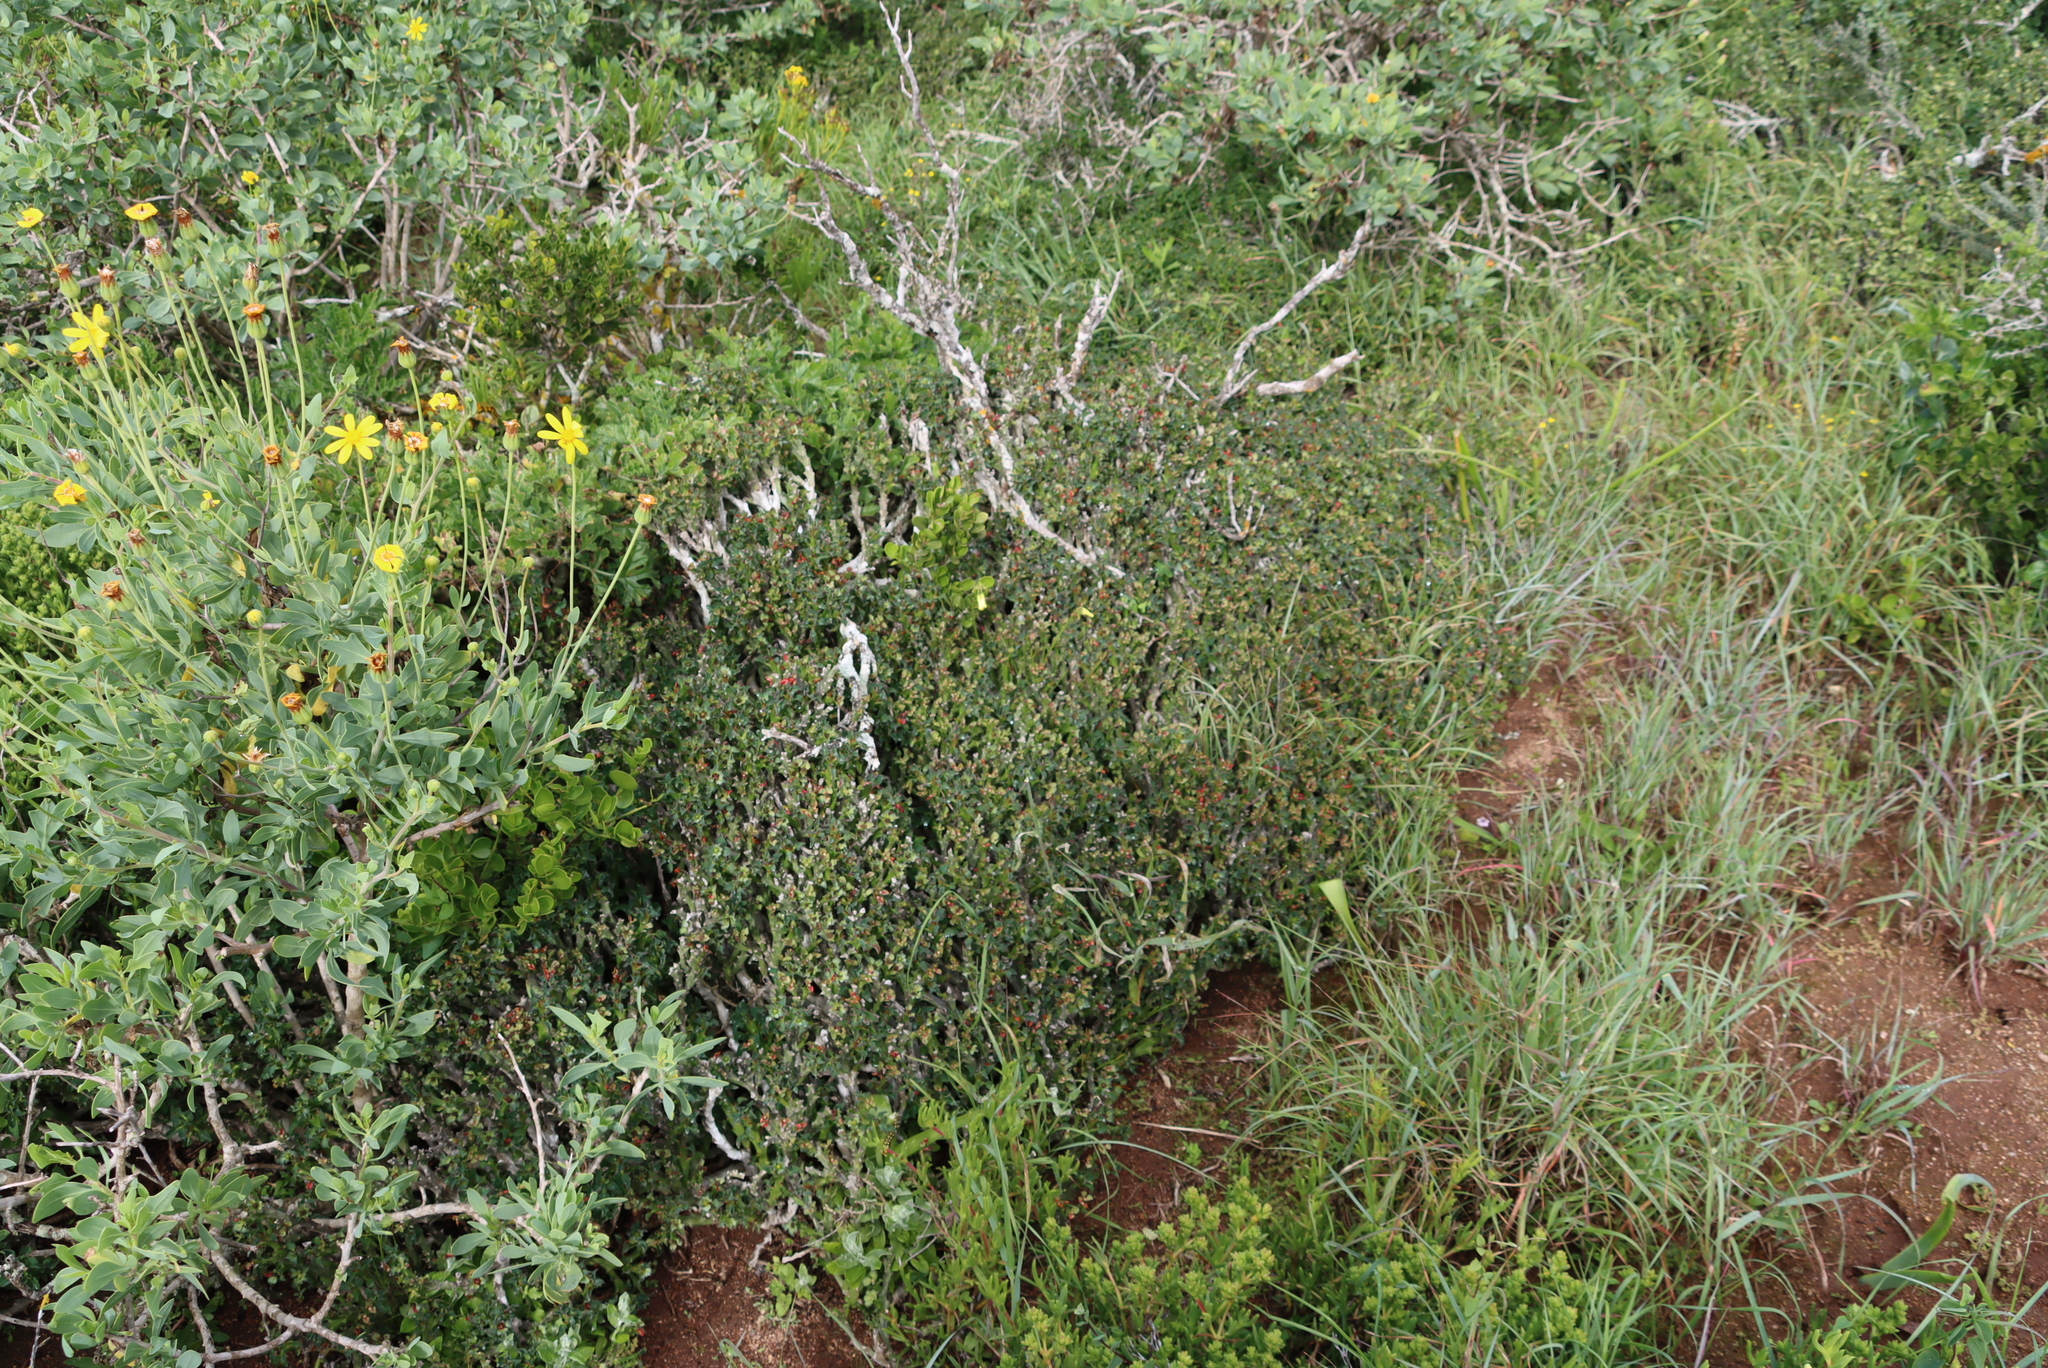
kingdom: Plantae
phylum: Tracheophyta
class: Magnoliopsida
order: Malpighiales
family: Euphorbiaceae
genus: Euphorbia
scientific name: Euphorbia hamata
